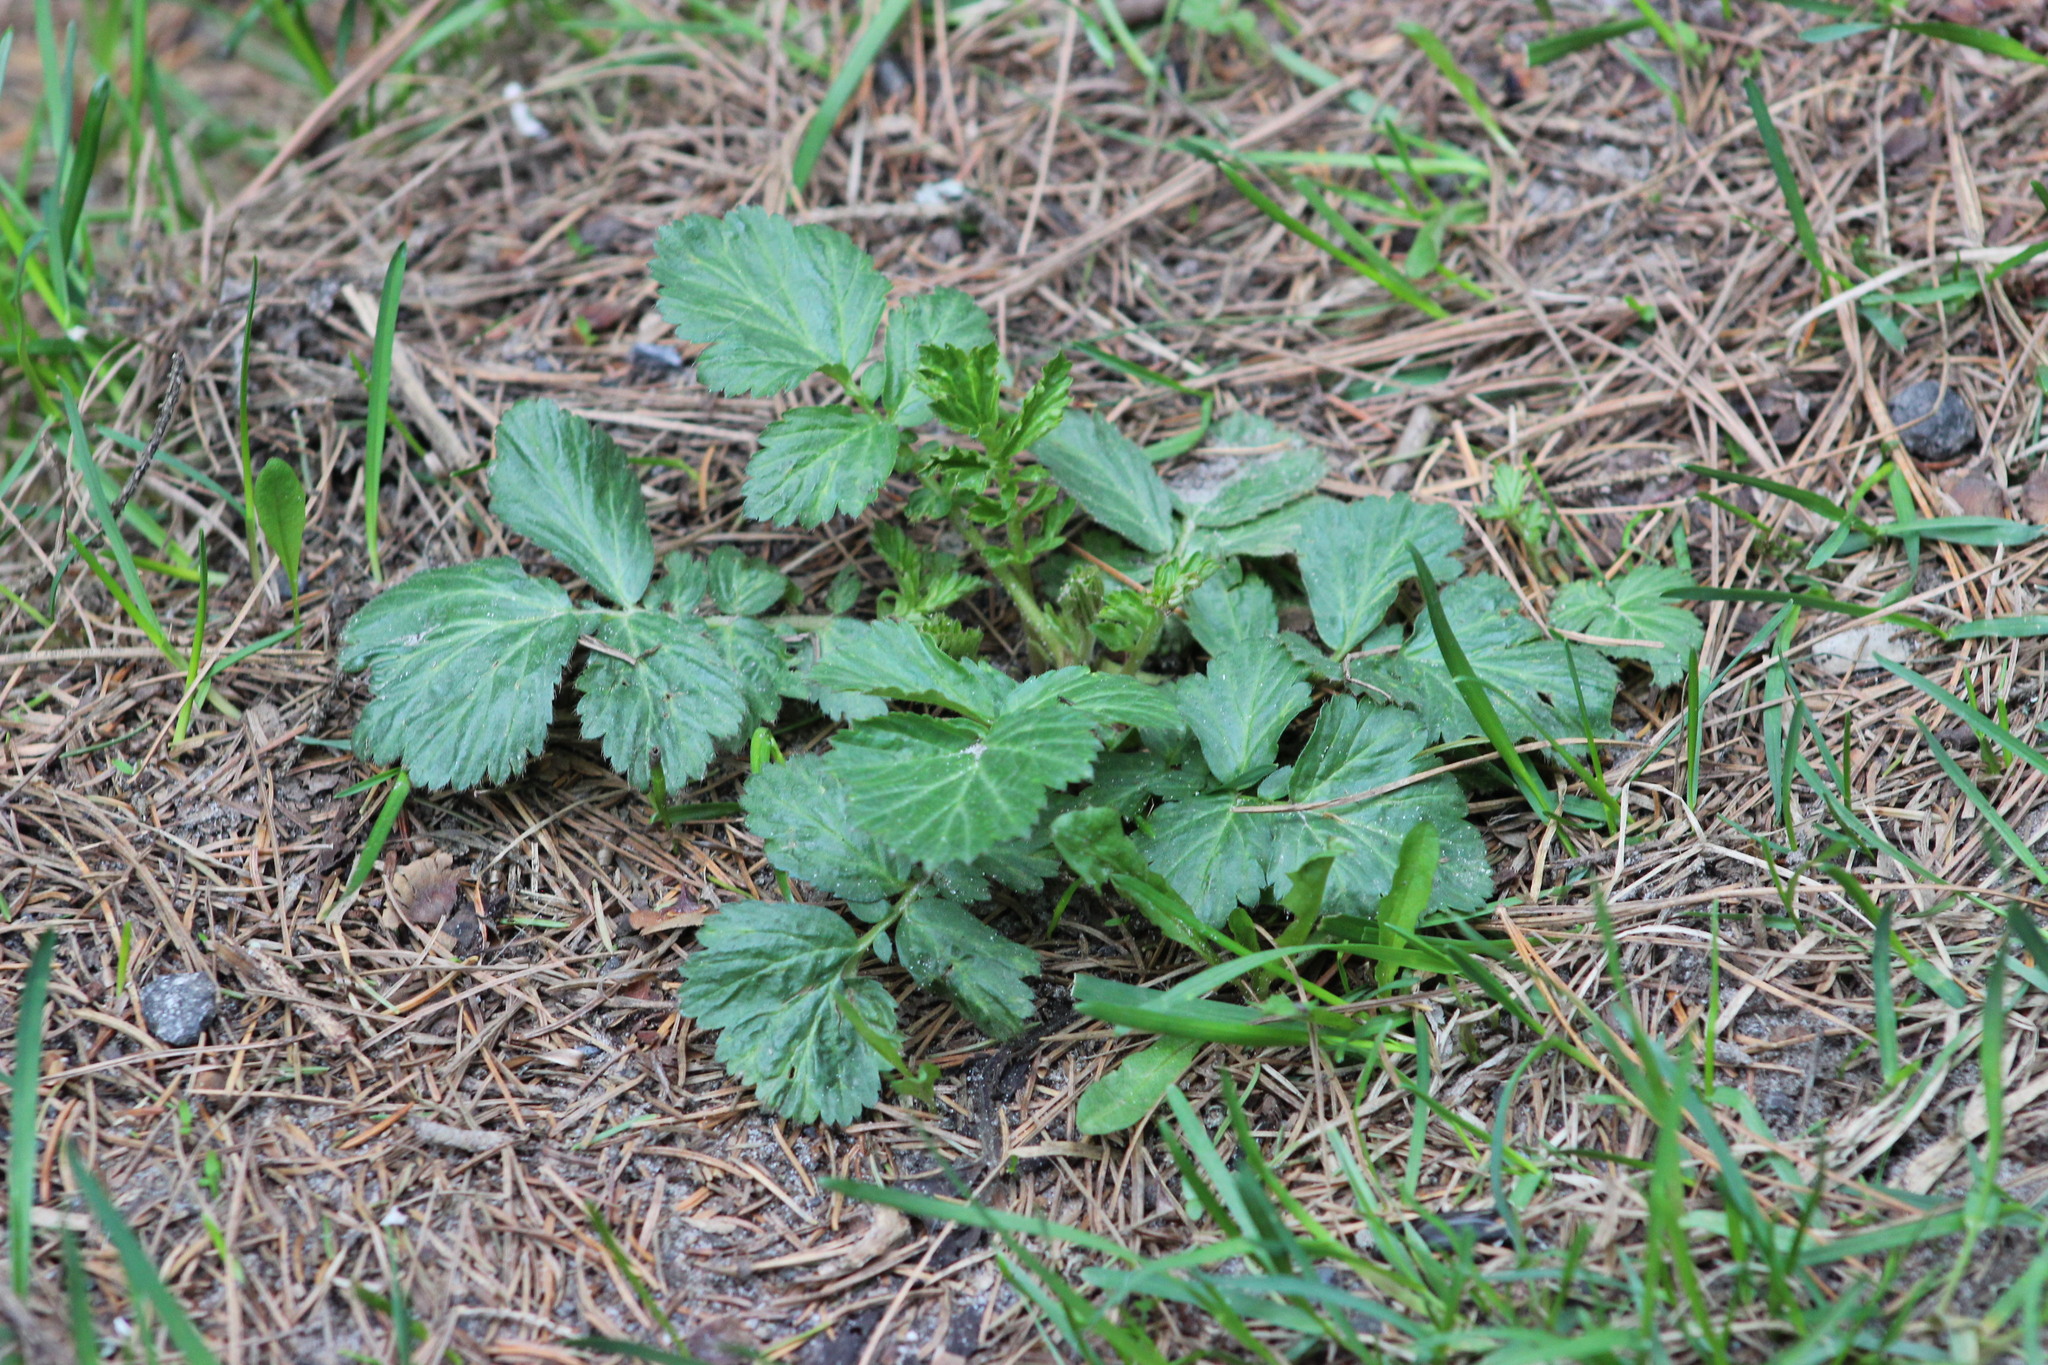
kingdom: Plantae
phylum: Tracheophyta
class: Magnoliopsida
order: Rosales
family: Rosaceae
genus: Geum
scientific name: Geum aleppicum
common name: Yellow avens
